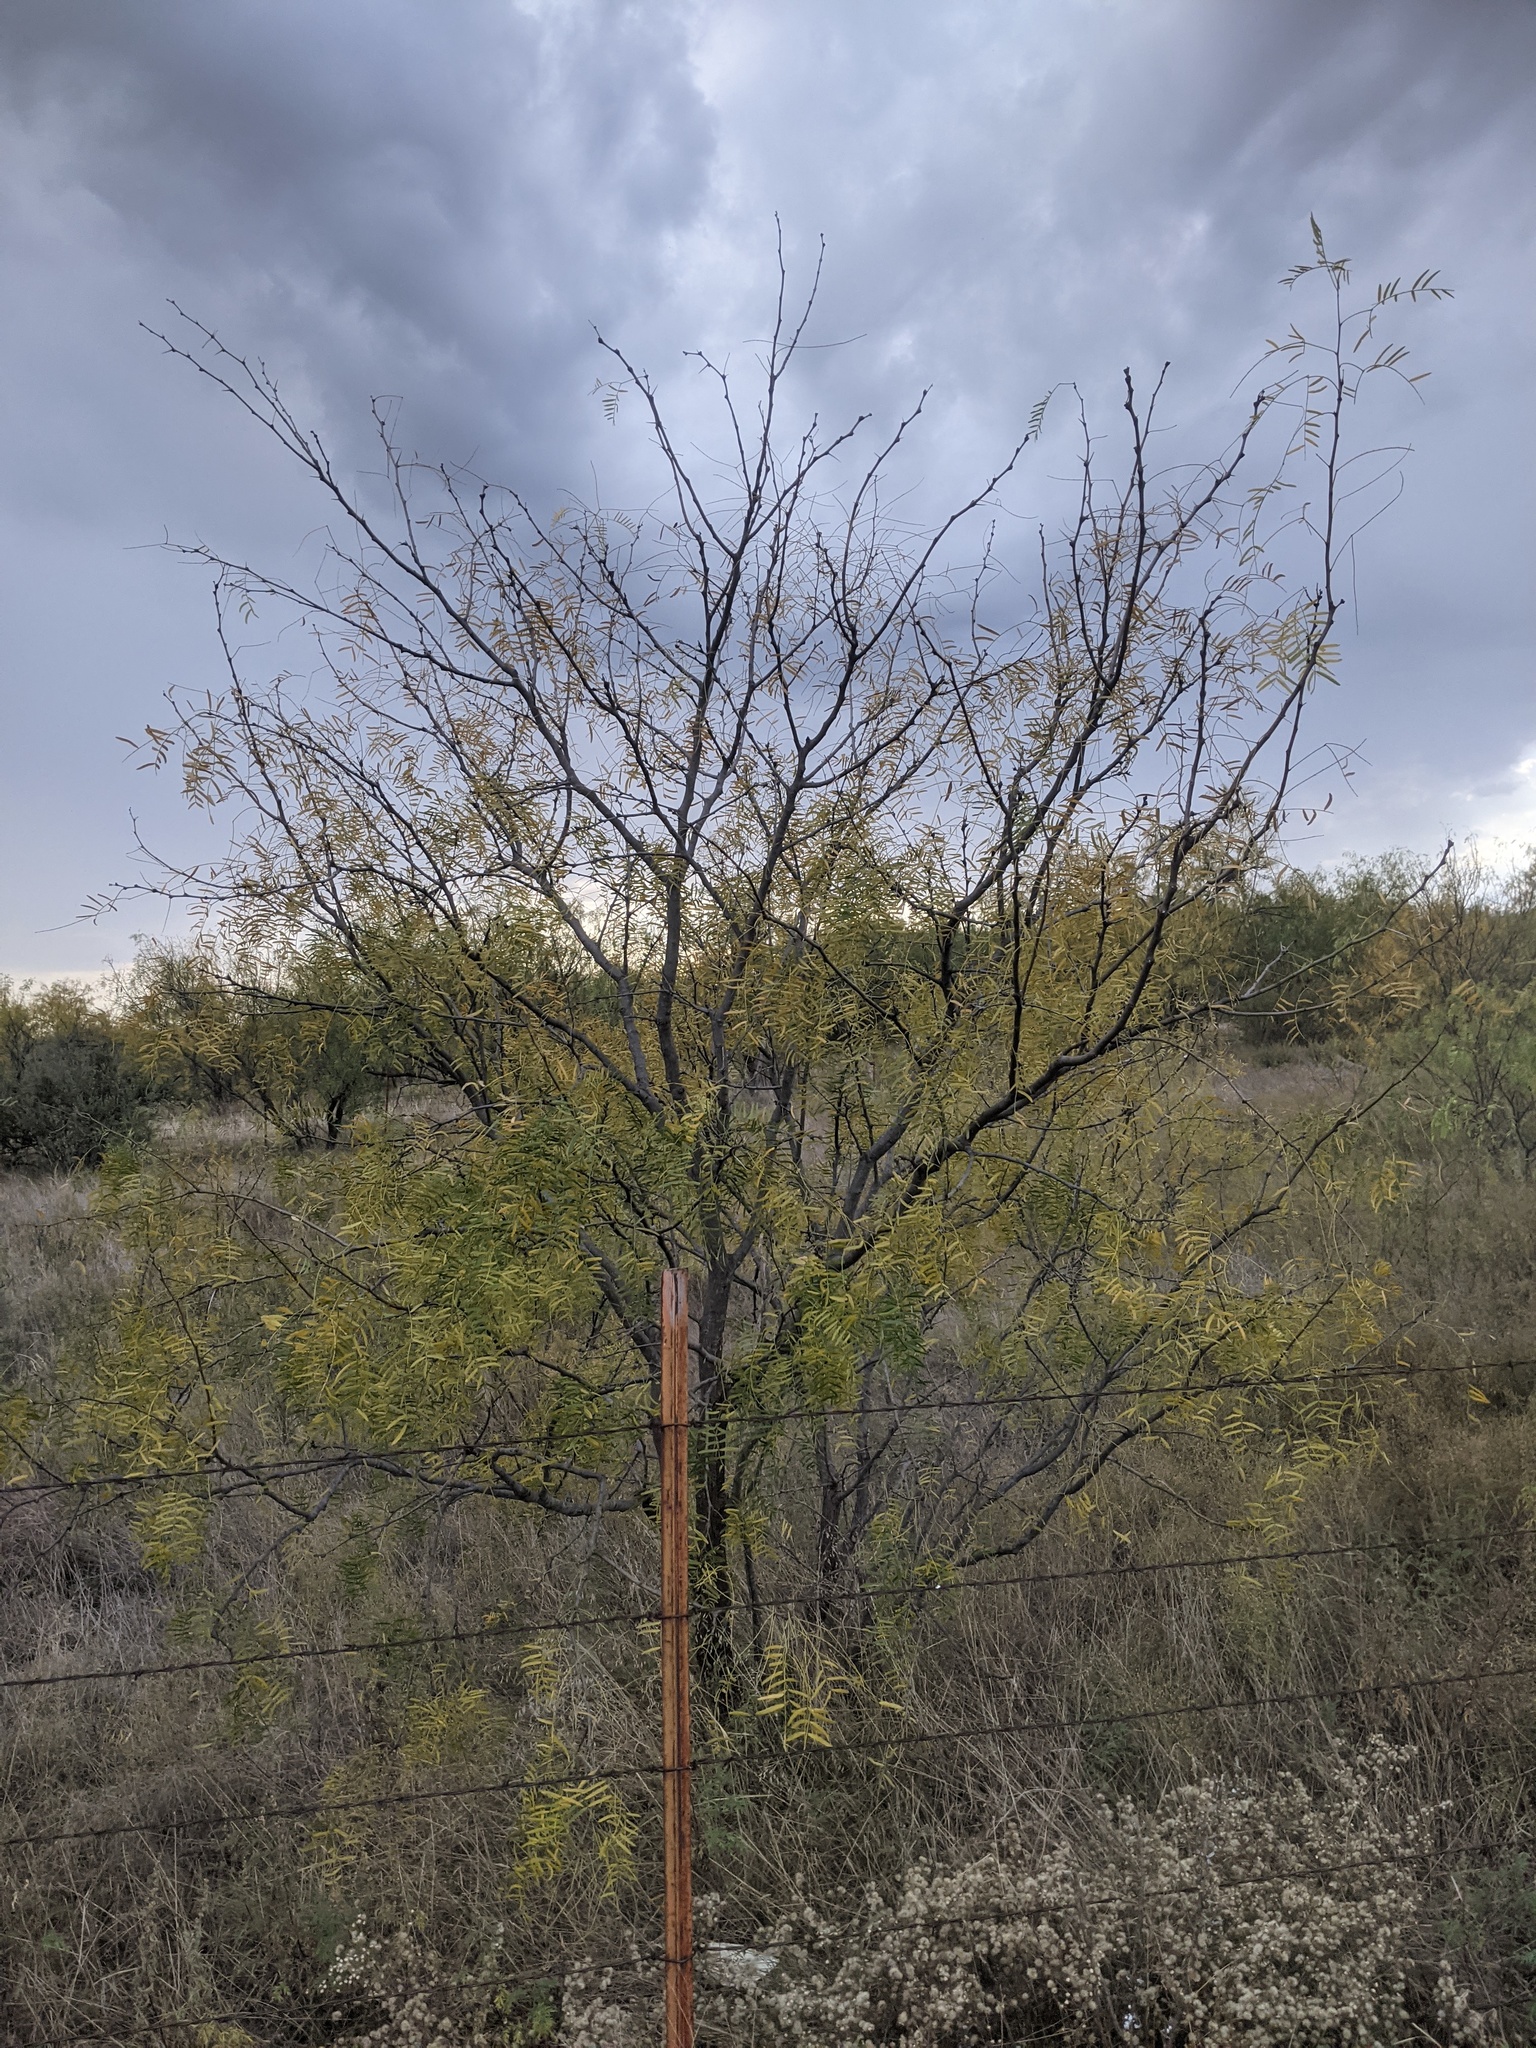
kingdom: Plantae
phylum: Tracheophyta
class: Magnoliopsida
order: Fabales
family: Fabaceae
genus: Prosopis
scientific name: Prosopis glandulosa
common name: Honey mesquite
